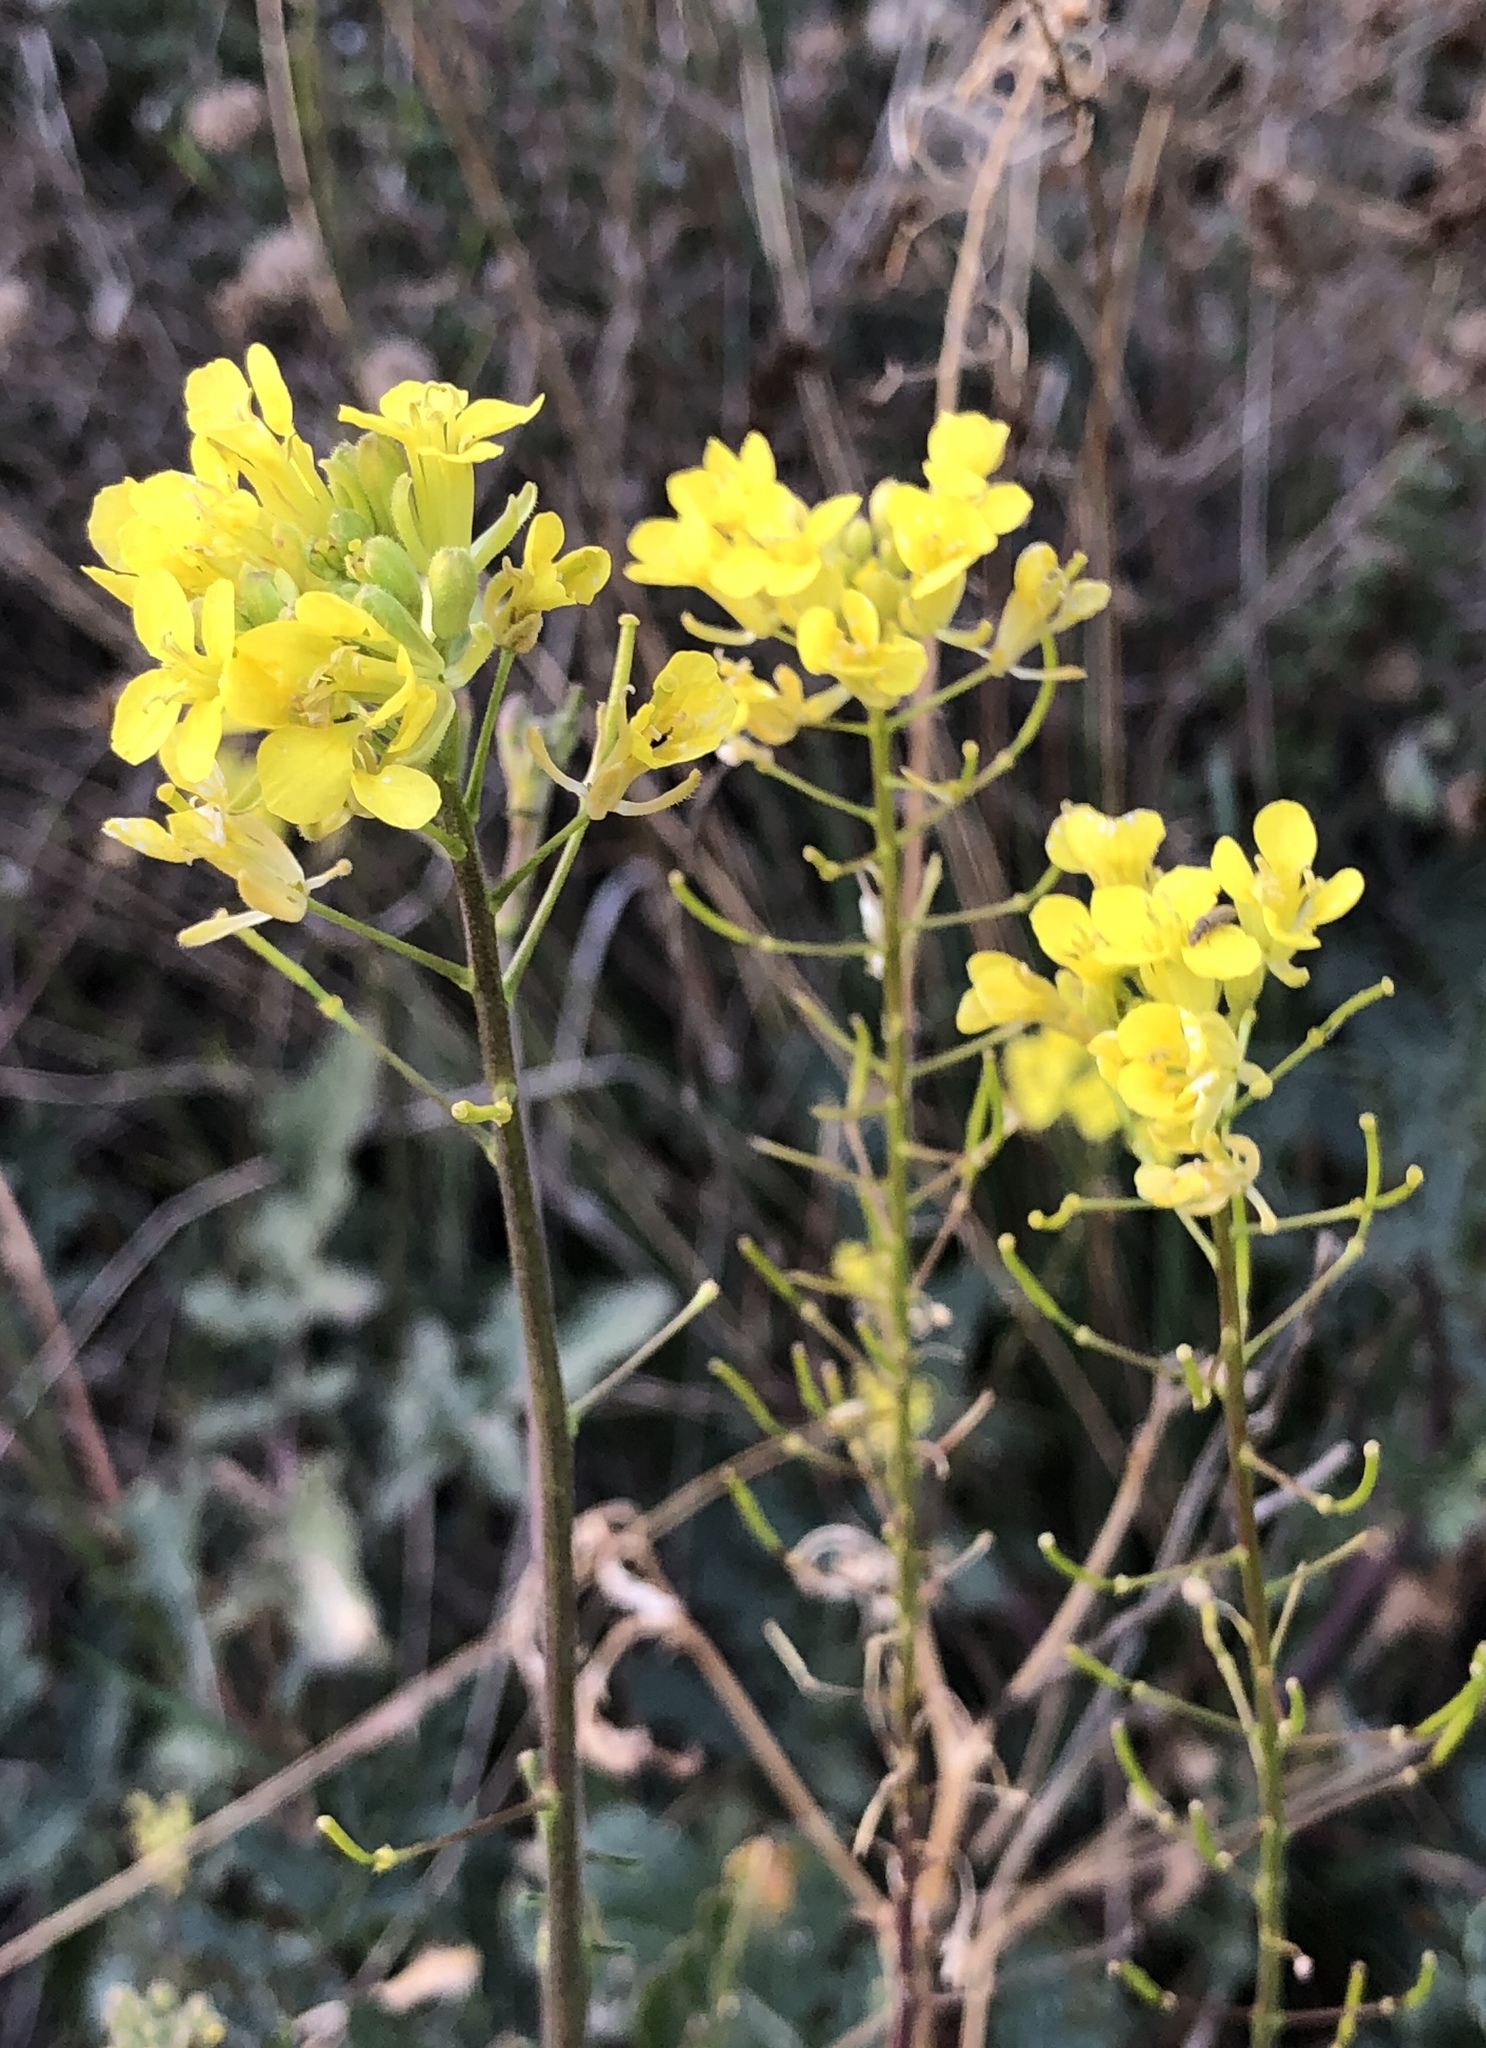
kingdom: Plantae
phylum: Tracheophyta
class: Magnoliopsida
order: Brassicales
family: Brassicaceae
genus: Brassica
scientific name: Brassica rapa
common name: Field mustard
